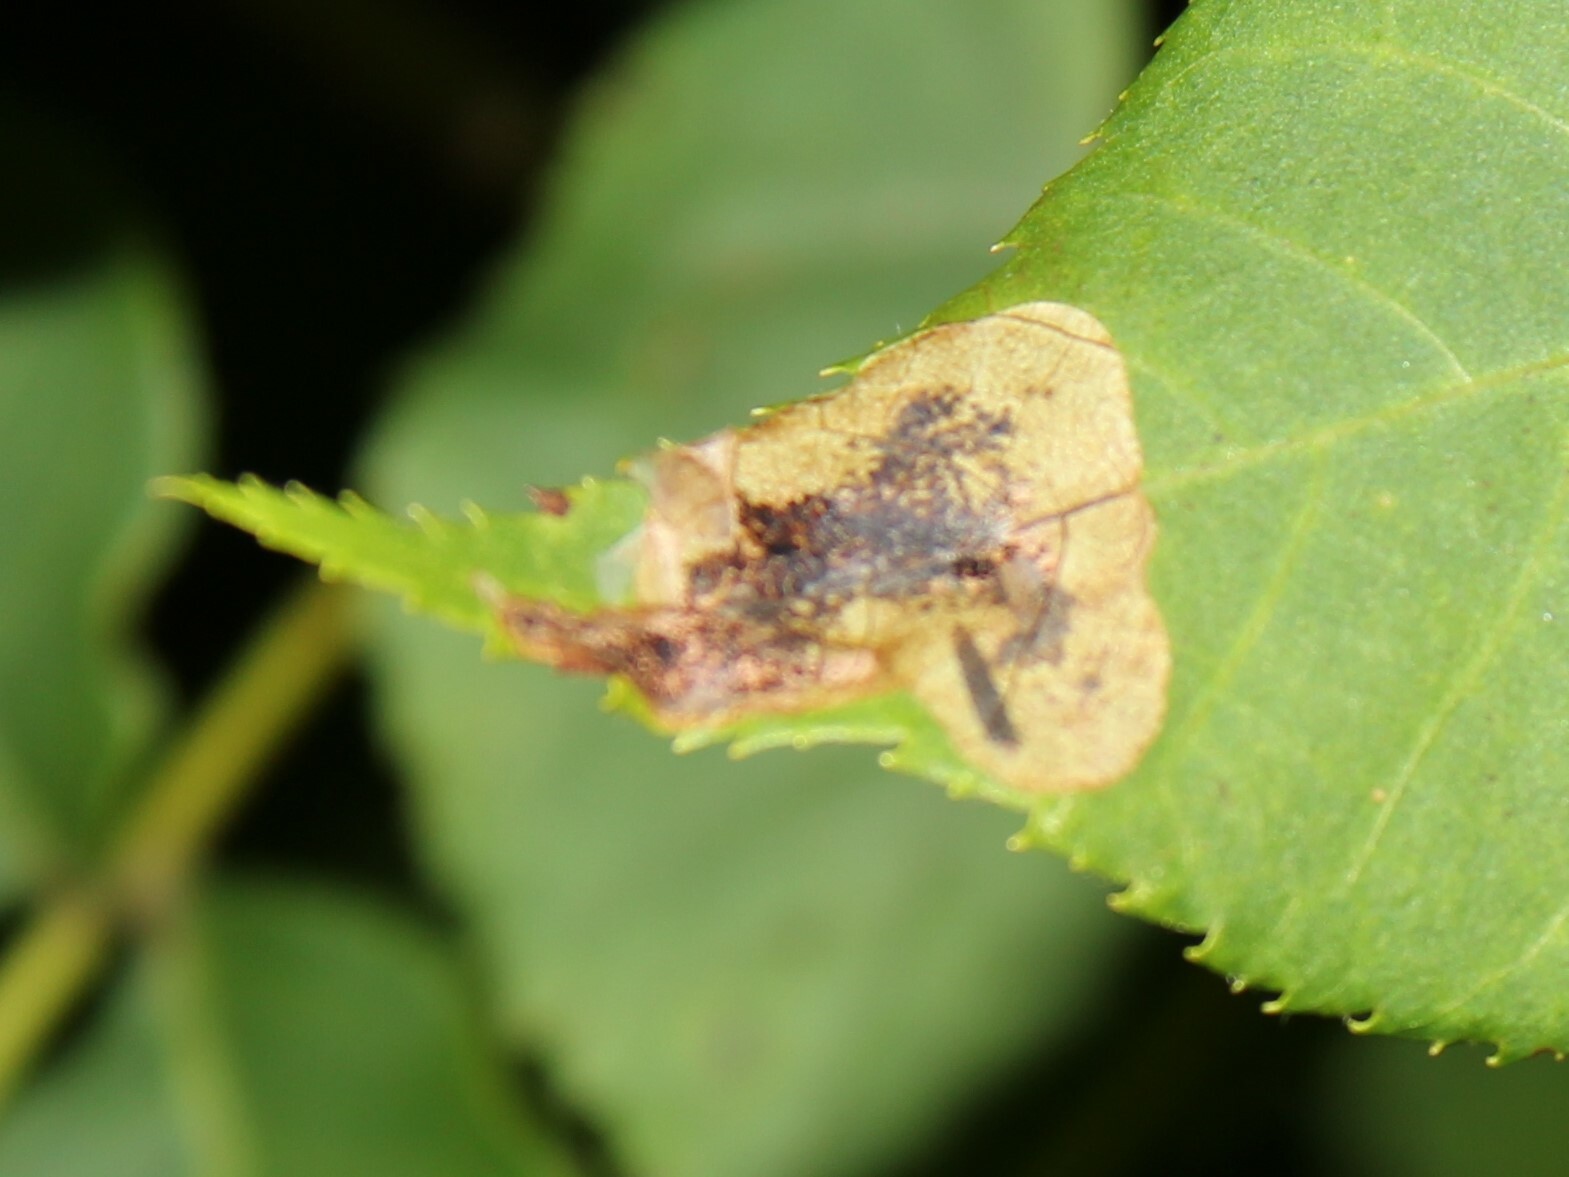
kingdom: Animalia
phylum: Arthropoda
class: Insecta
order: Lepidoptera
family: Gracillariidae
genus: Cameraria
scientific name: Cameraria caryaefoliella
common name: Pecan leafminer moth
